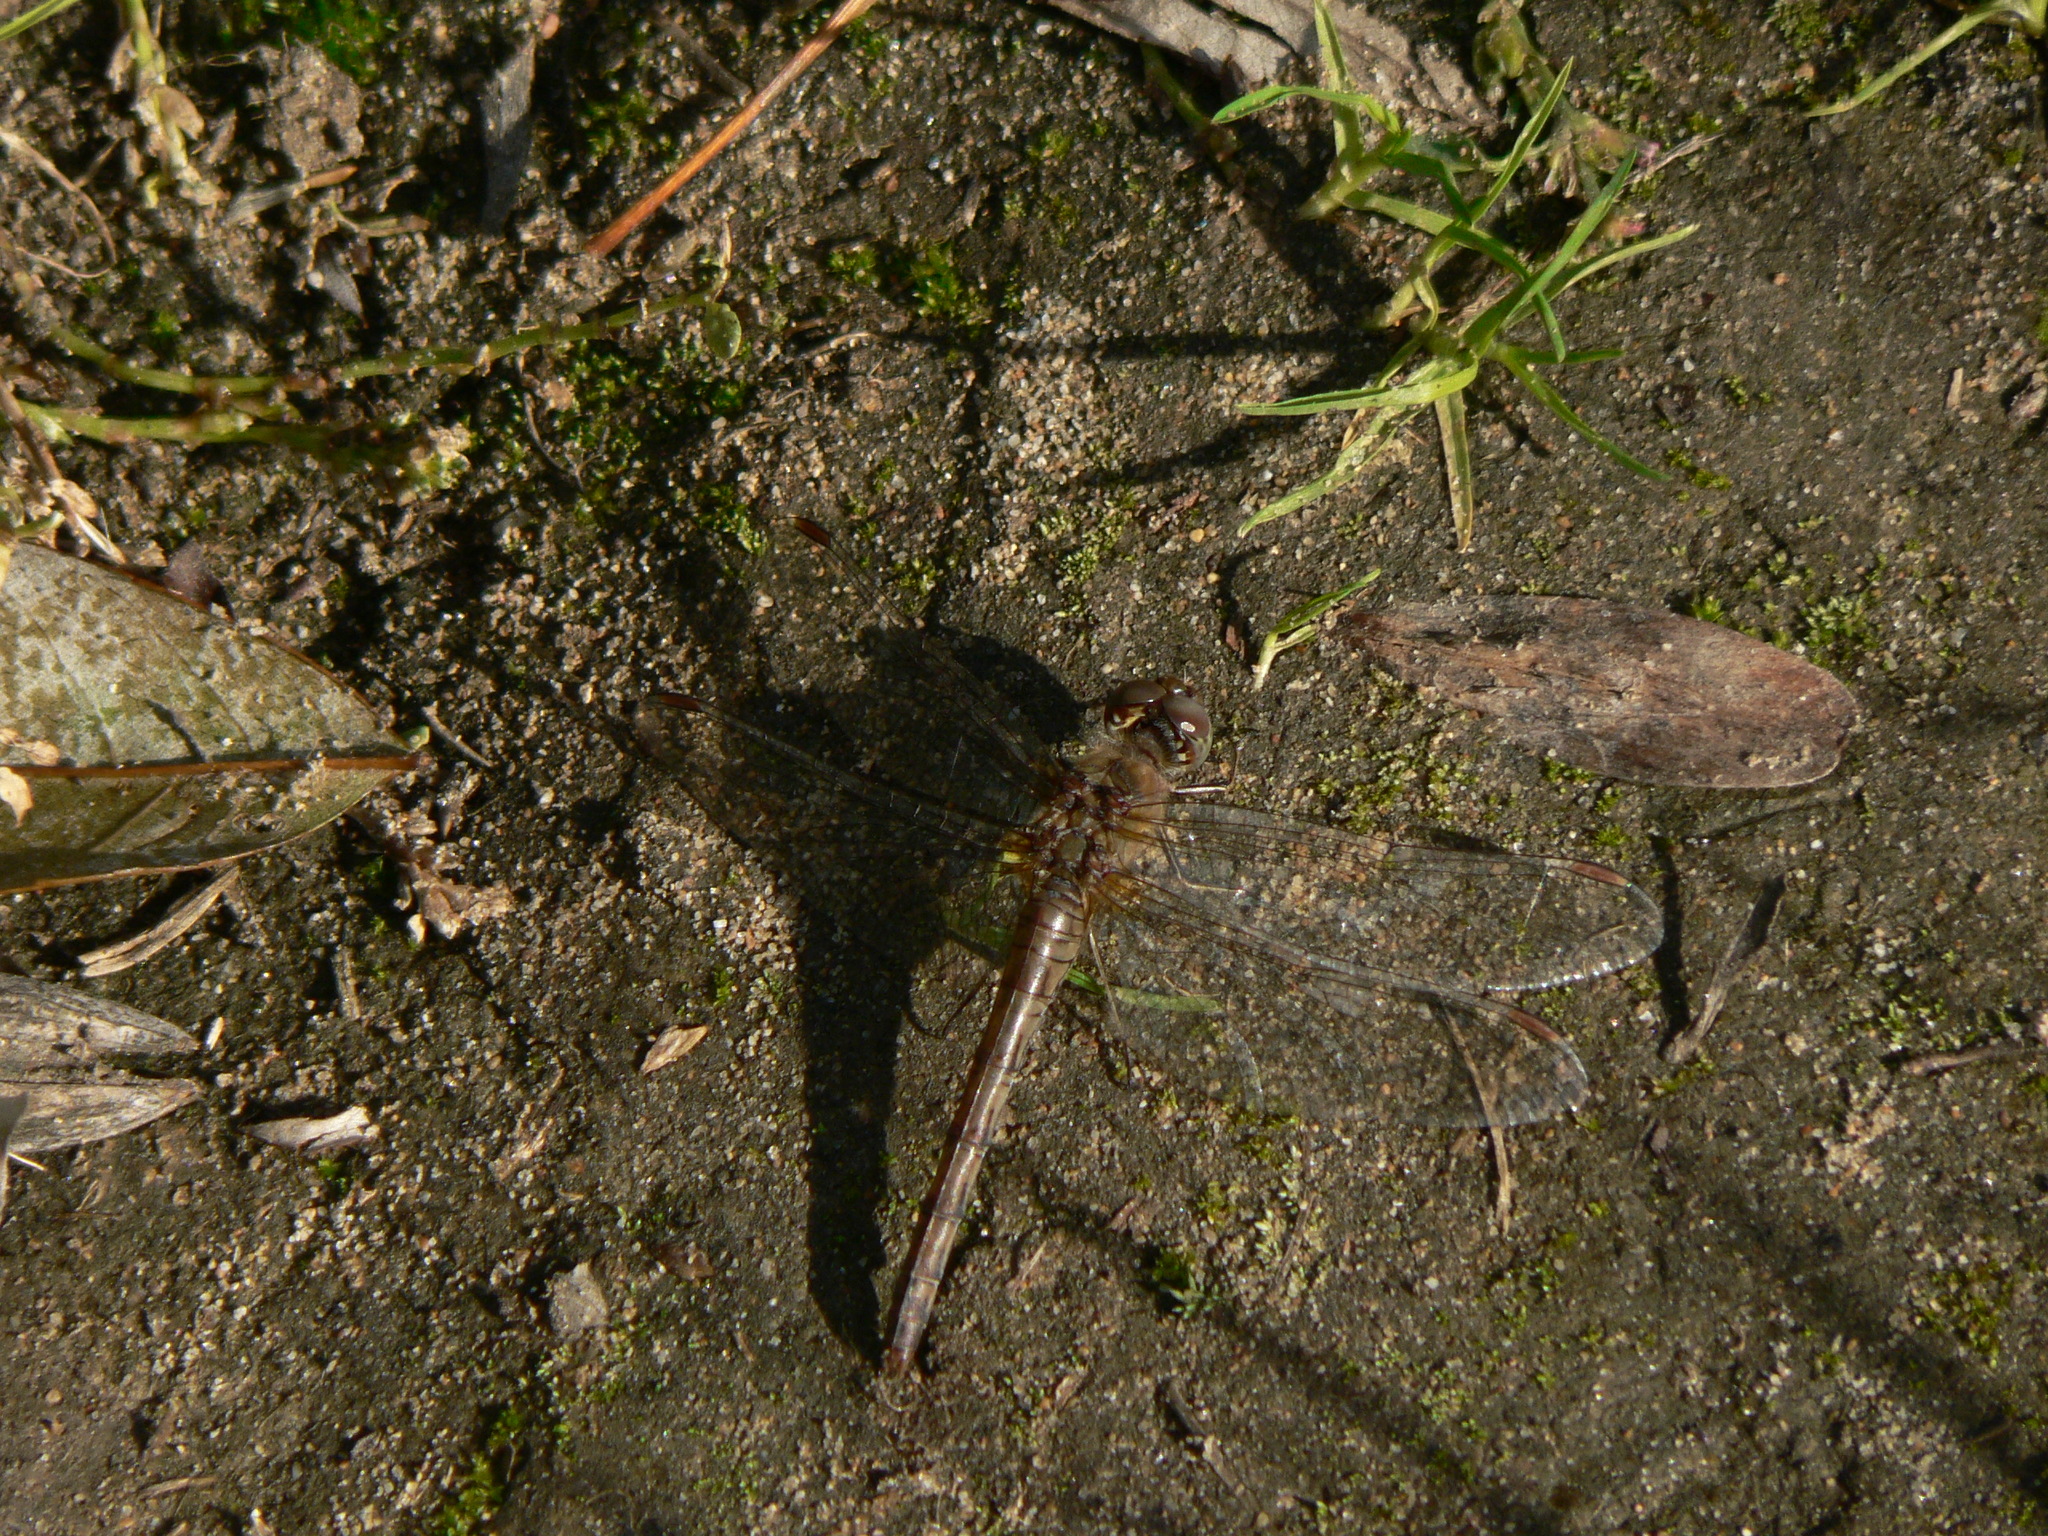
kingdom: Animalia
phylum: Arthropoda
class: Insecta
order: Odonata
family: Libellulidae
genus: Sympetrum
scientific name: Sympetrum striolatum
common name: Common darter
